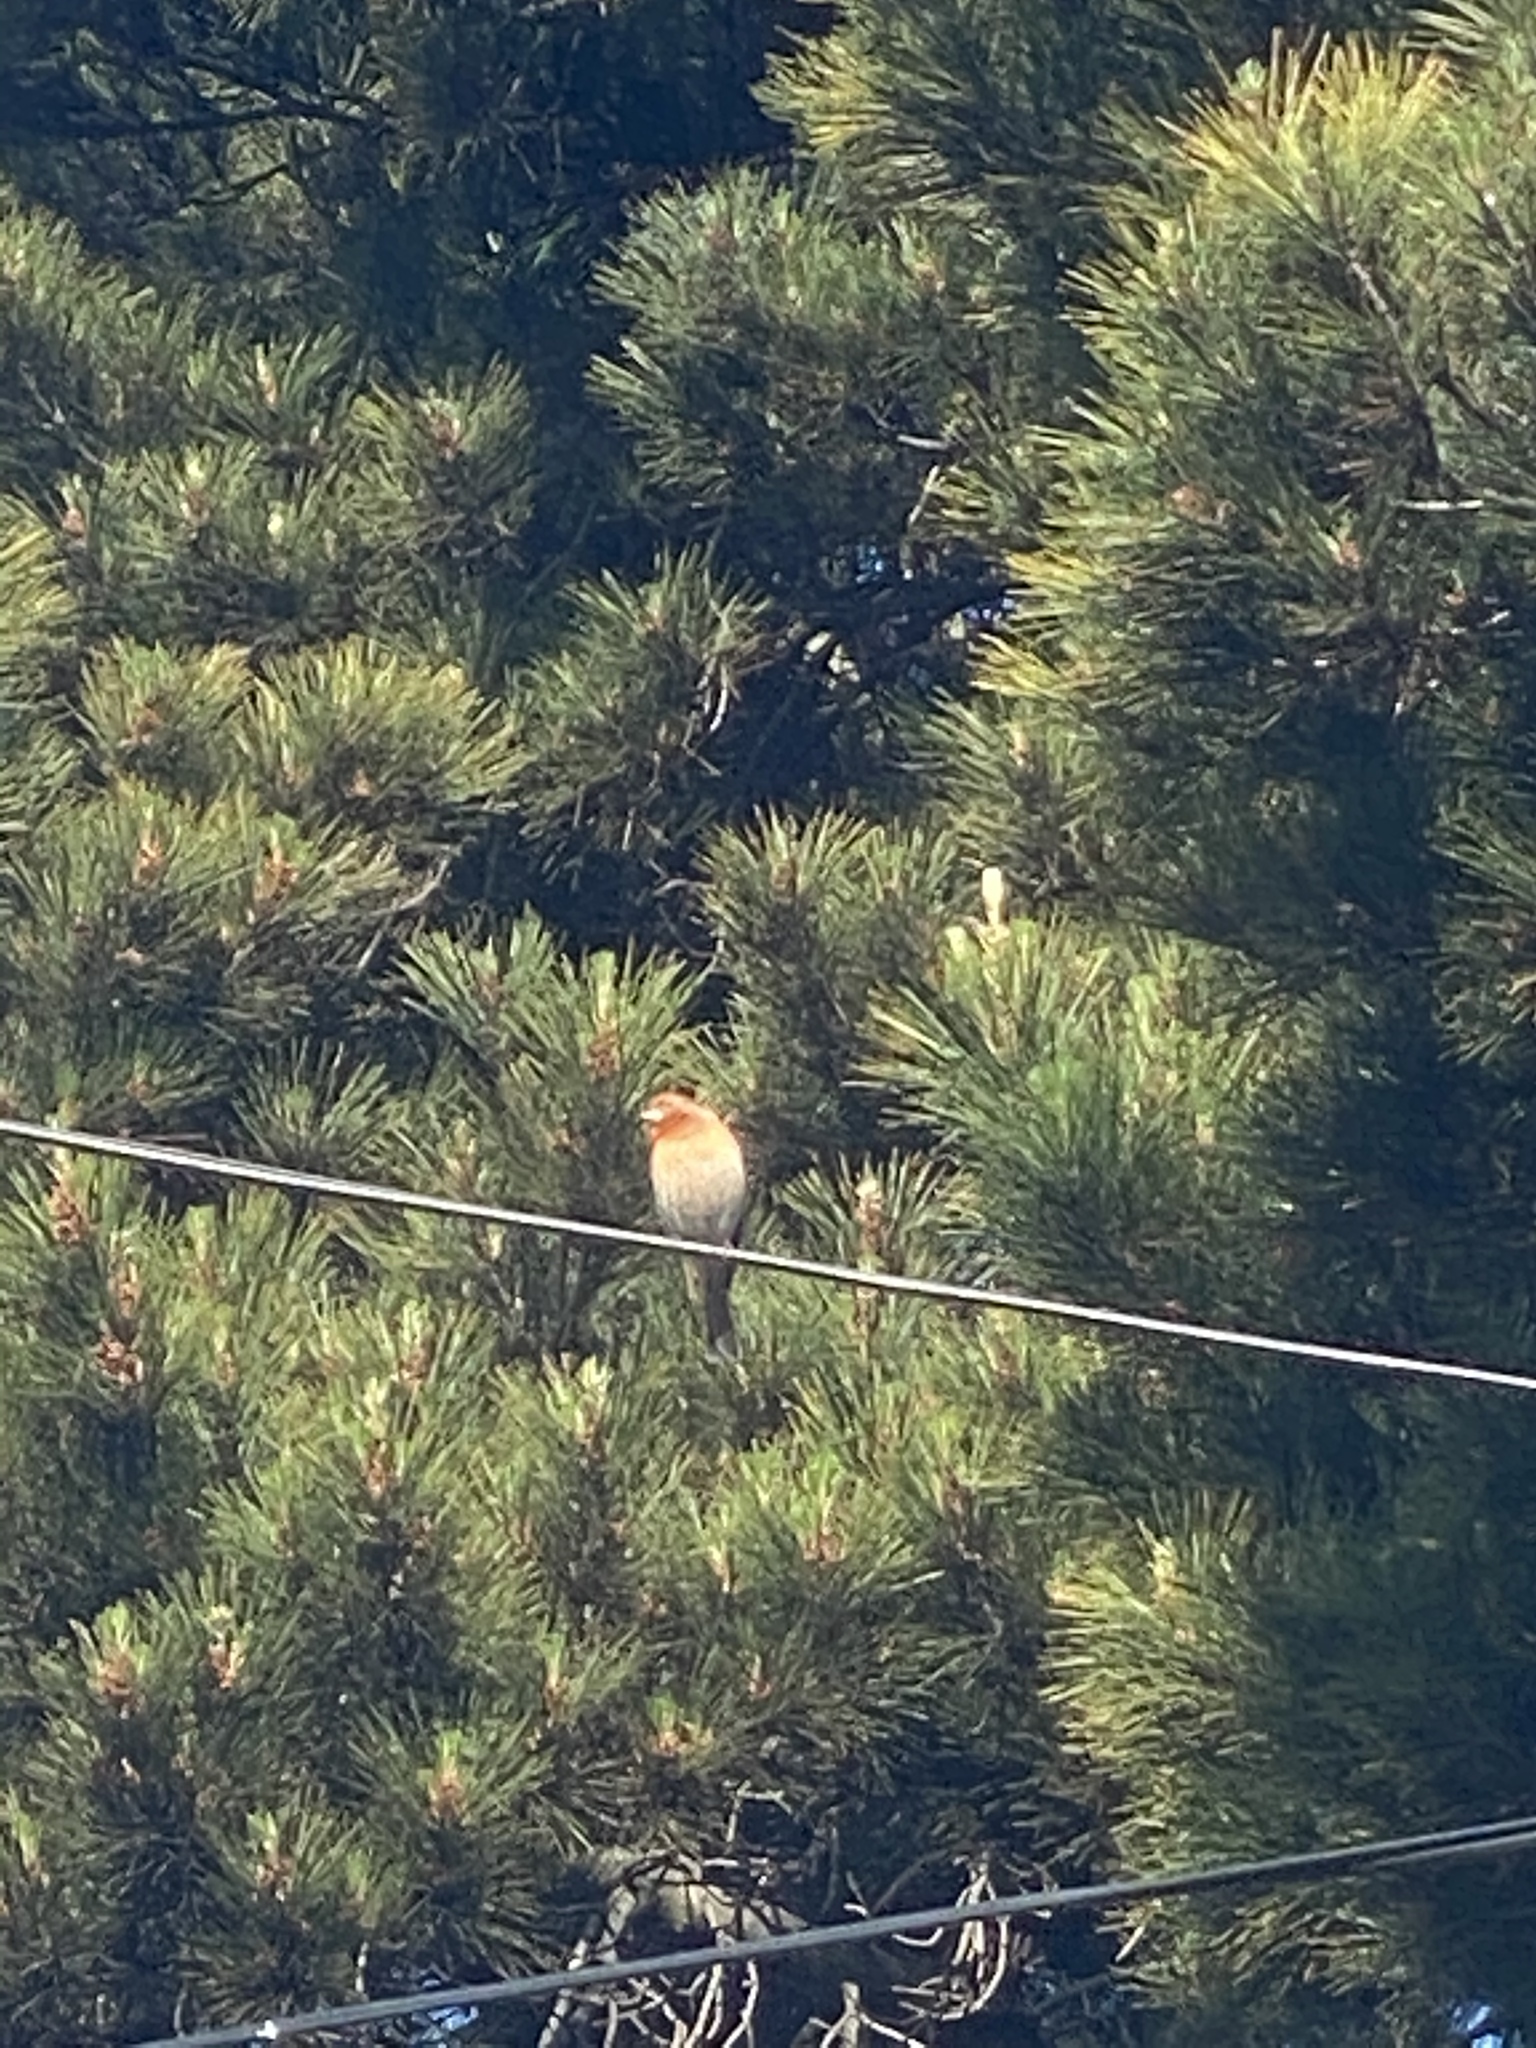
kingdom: Animalia
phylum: Chordata
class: Aves
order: Passeriformes
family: Fringillidae
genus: Haemorhous
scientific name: Haemorhous mexicanus
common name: House finch
